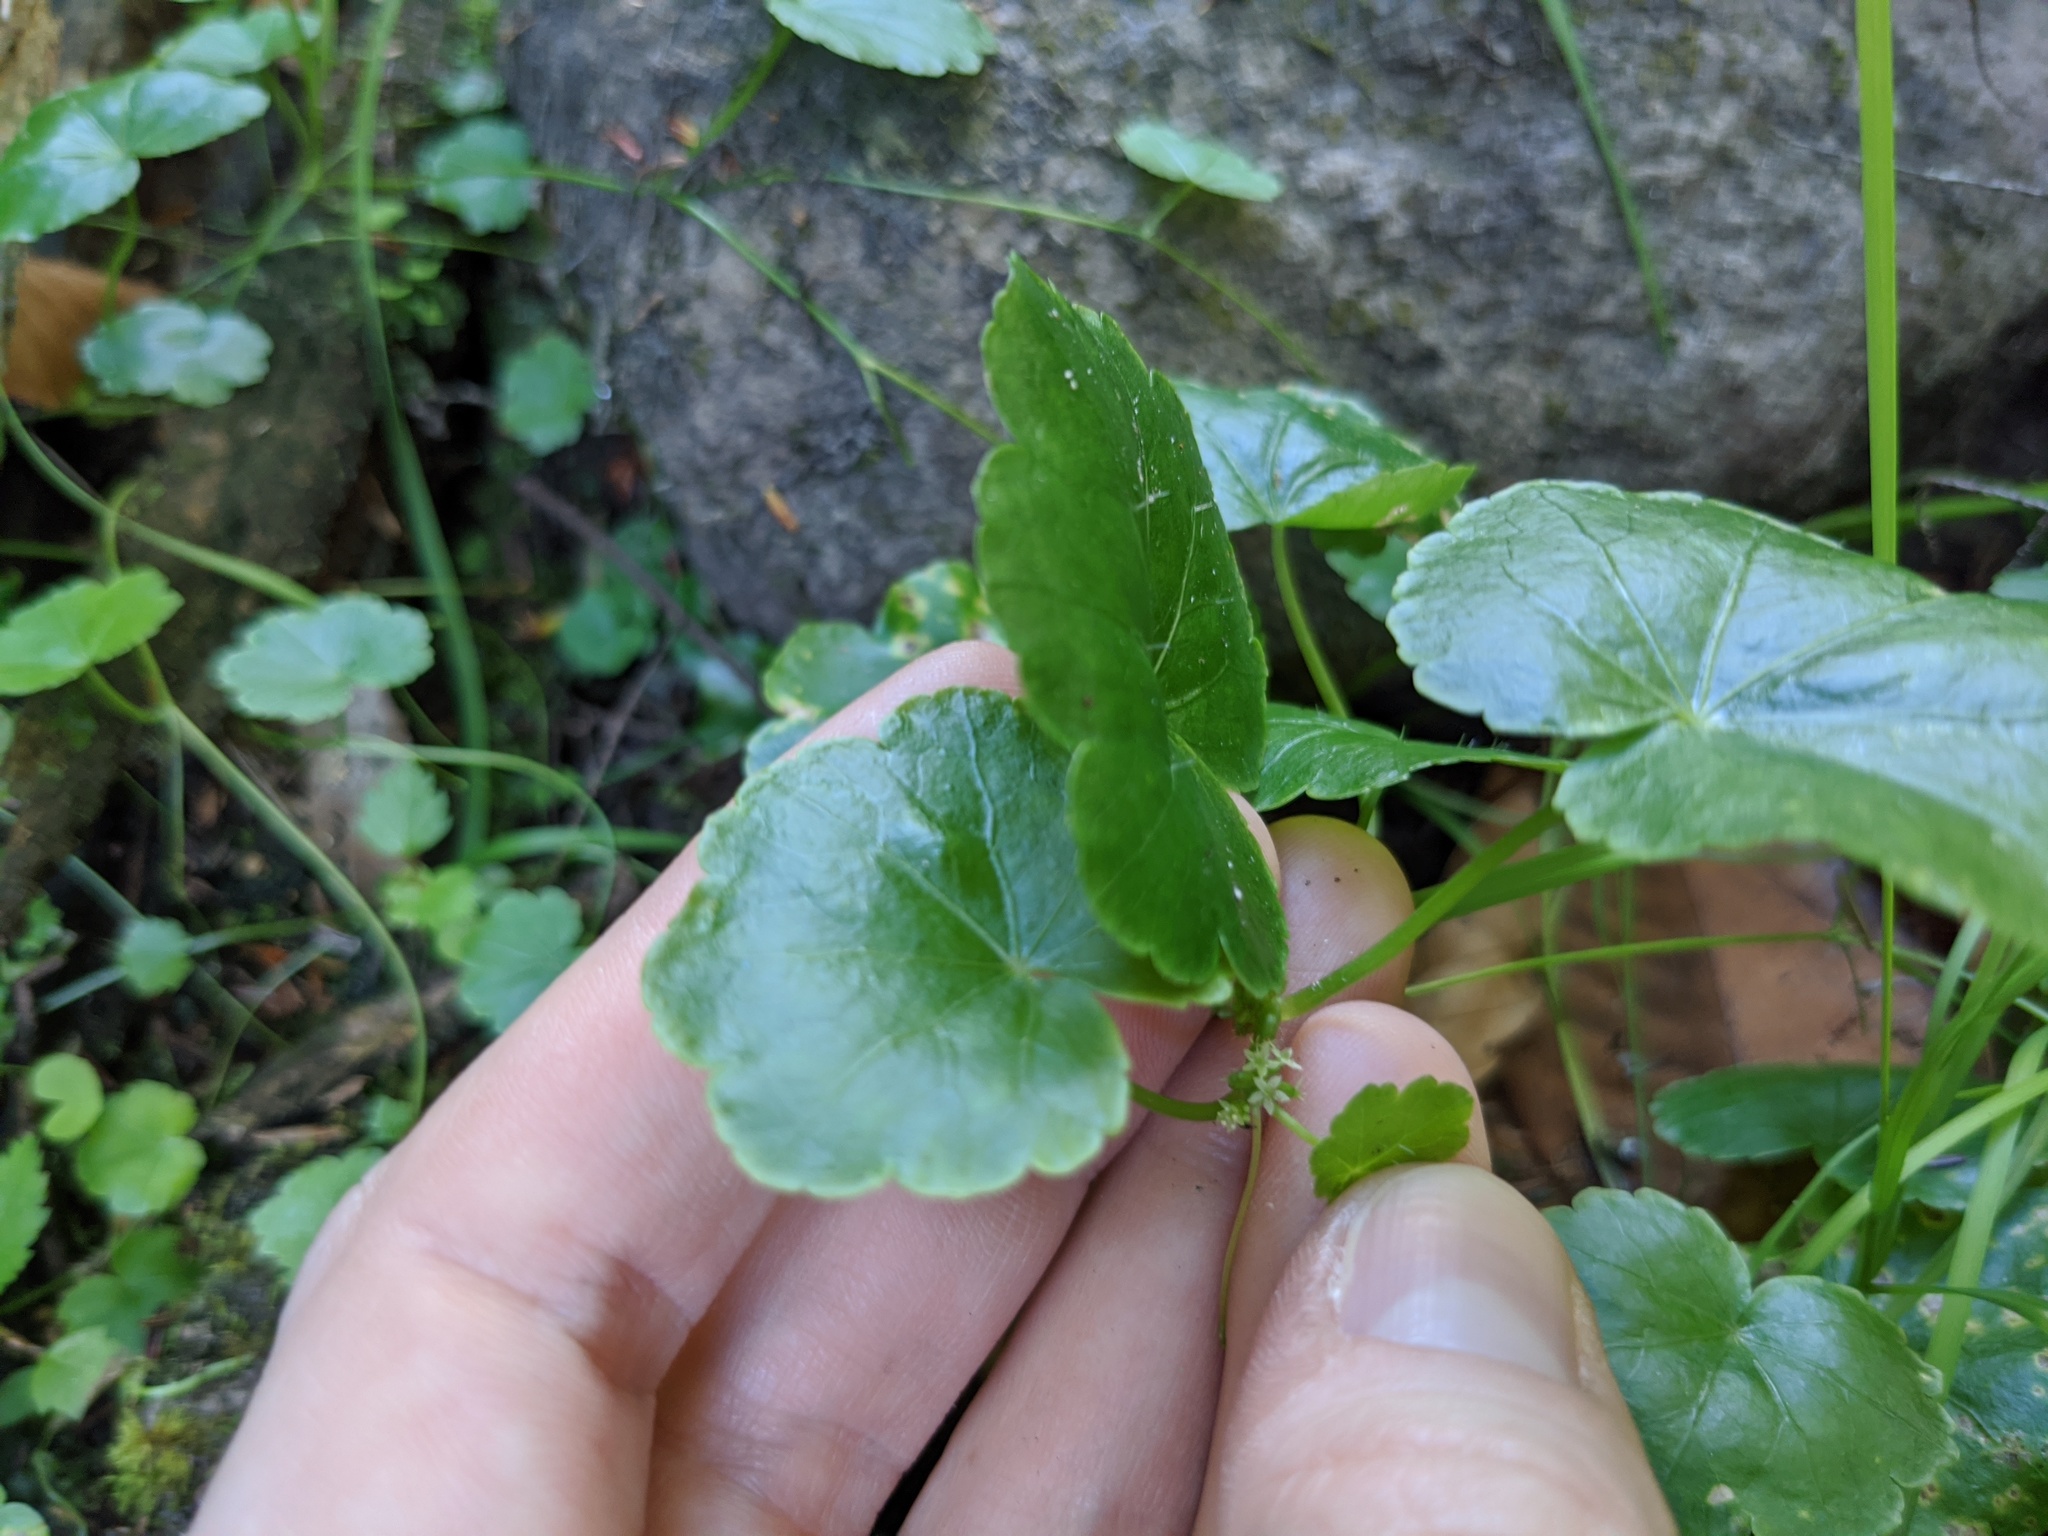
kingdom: Plantae
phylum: Tracheophyta
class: Magnoliopsida
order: Apiales
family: Araliaceae
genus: Hydrocotyle
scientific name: Hydrocotyle americana
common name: American water-pennywort
